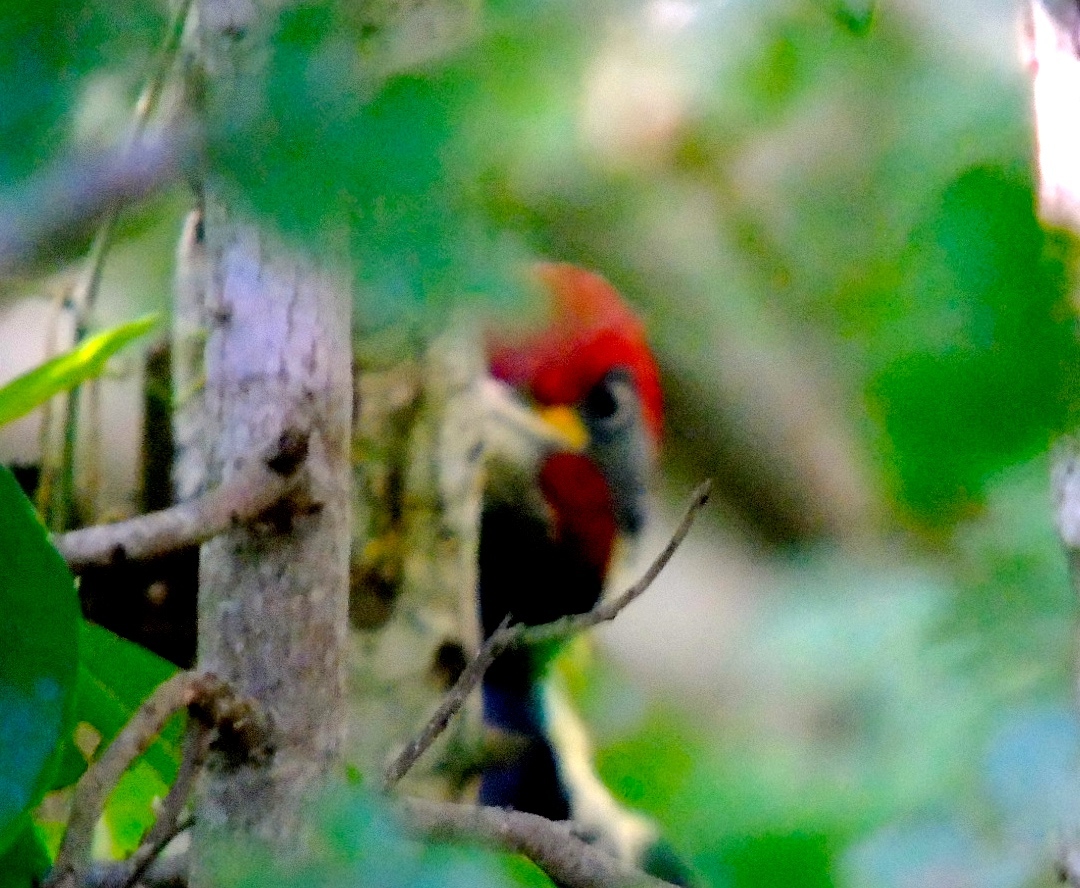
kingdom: Animalia
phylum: Chordata
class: Aves
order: Piciformes
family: Picidae
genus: Dryocopus
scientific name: Dryocopus lineatus
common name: Lineated woodpecker
